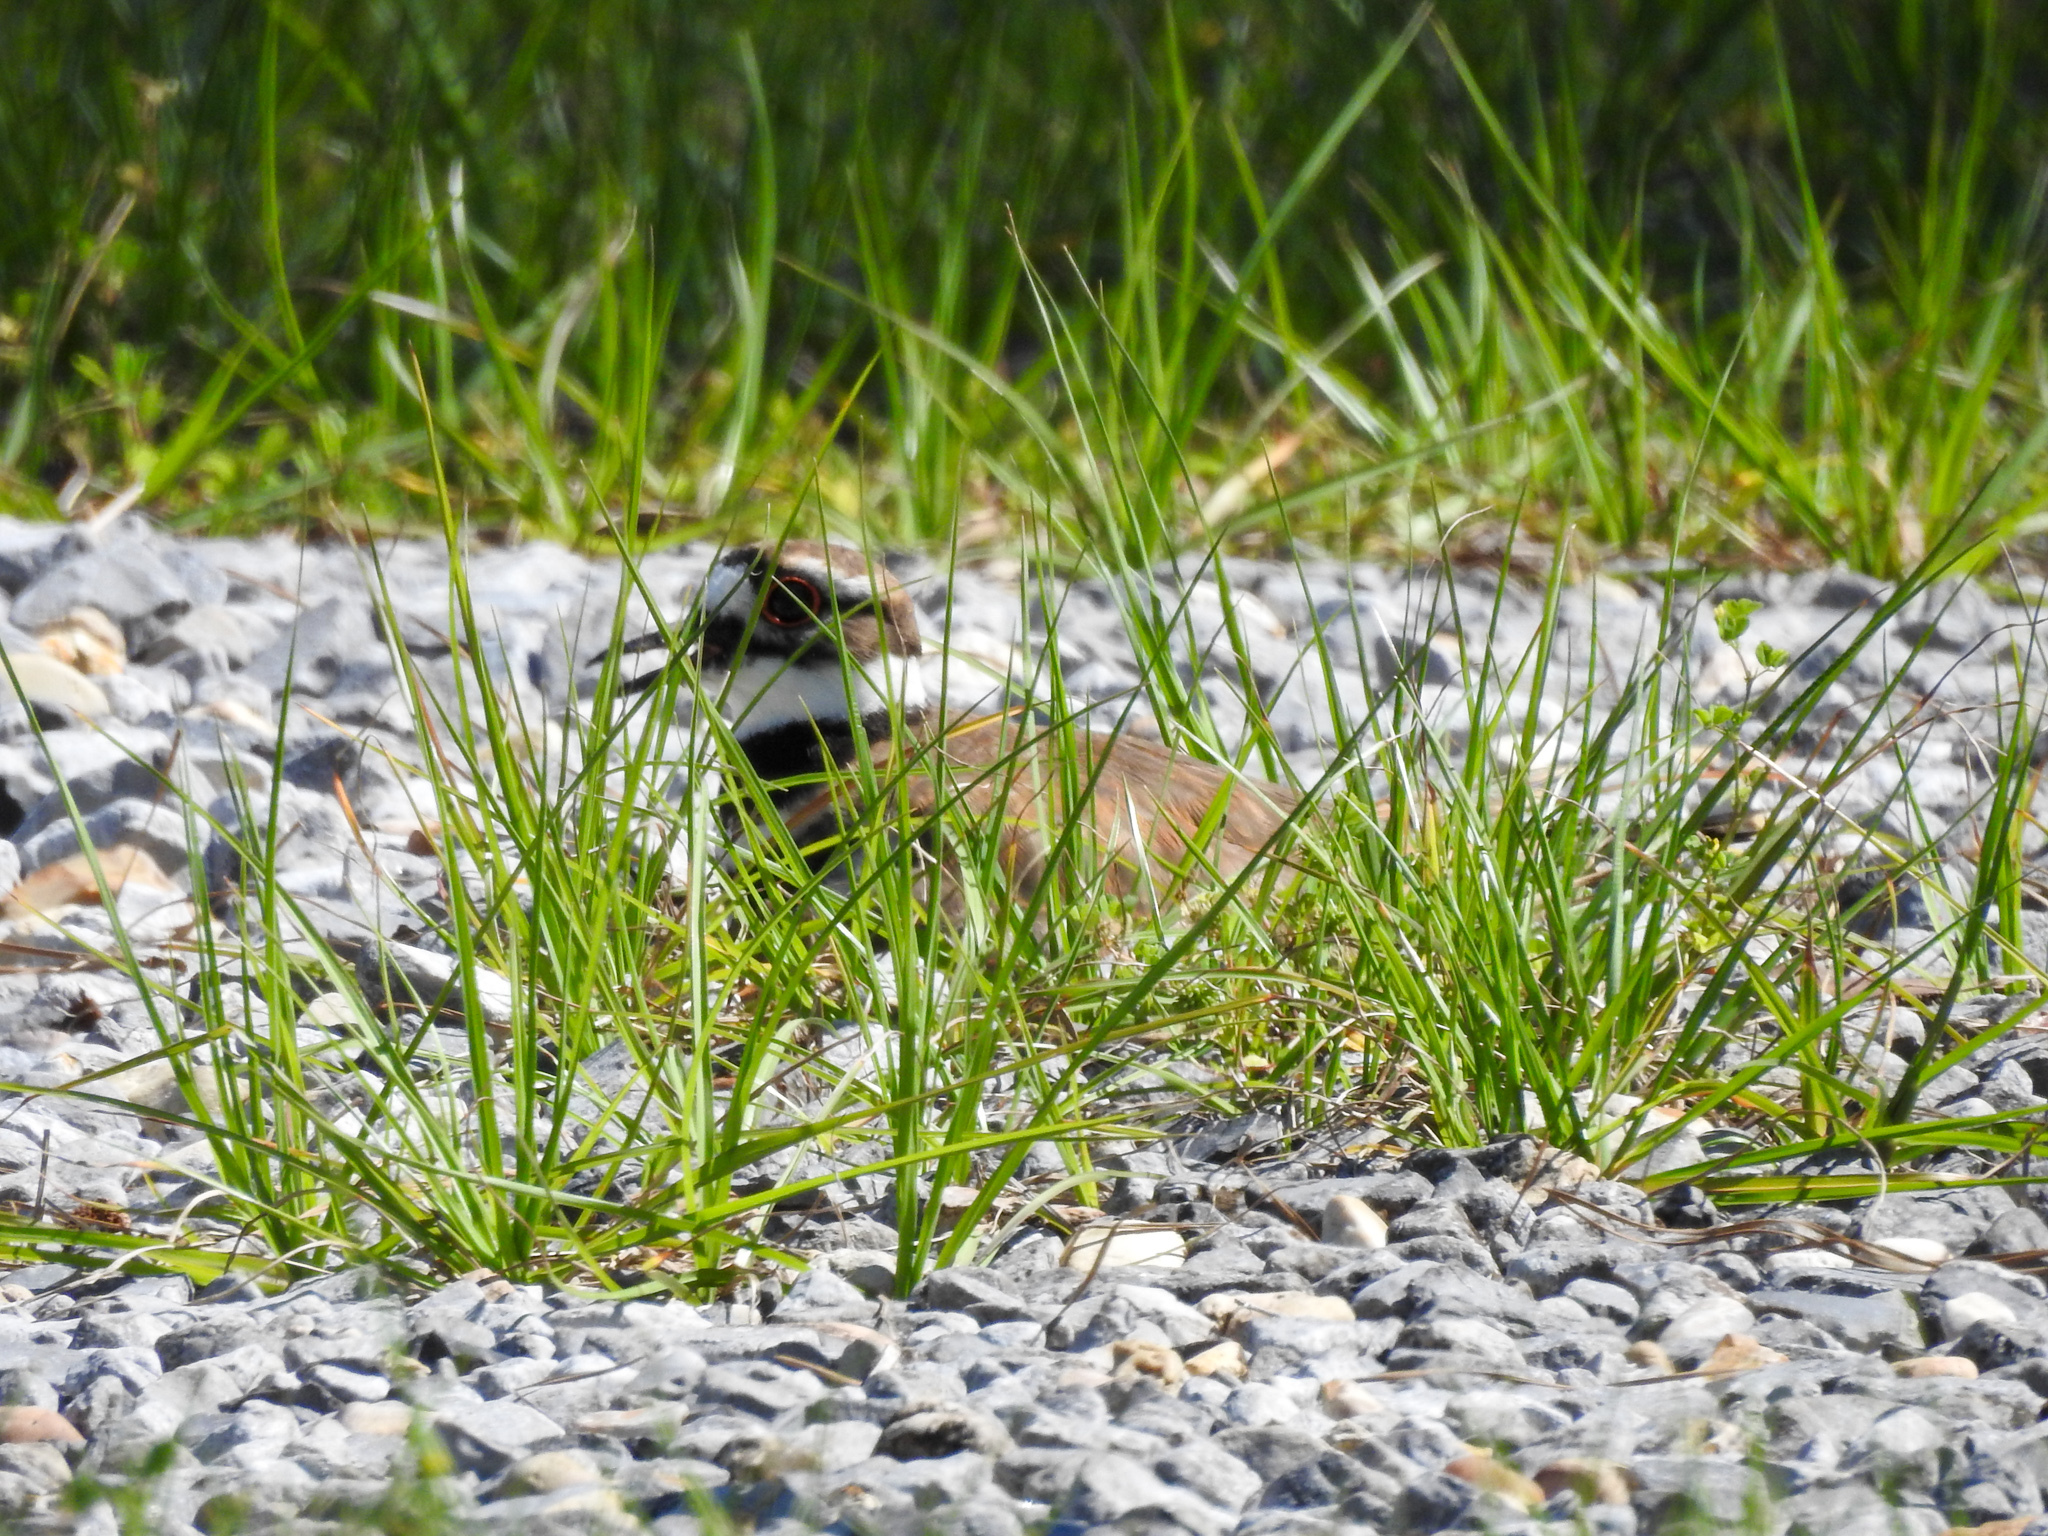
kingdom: Animalia
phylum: Chordata
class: Aves
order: Charadriiformes
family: Charadriidae
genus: Charadrius
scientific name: Charadrius vociferus
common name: Killdeer
